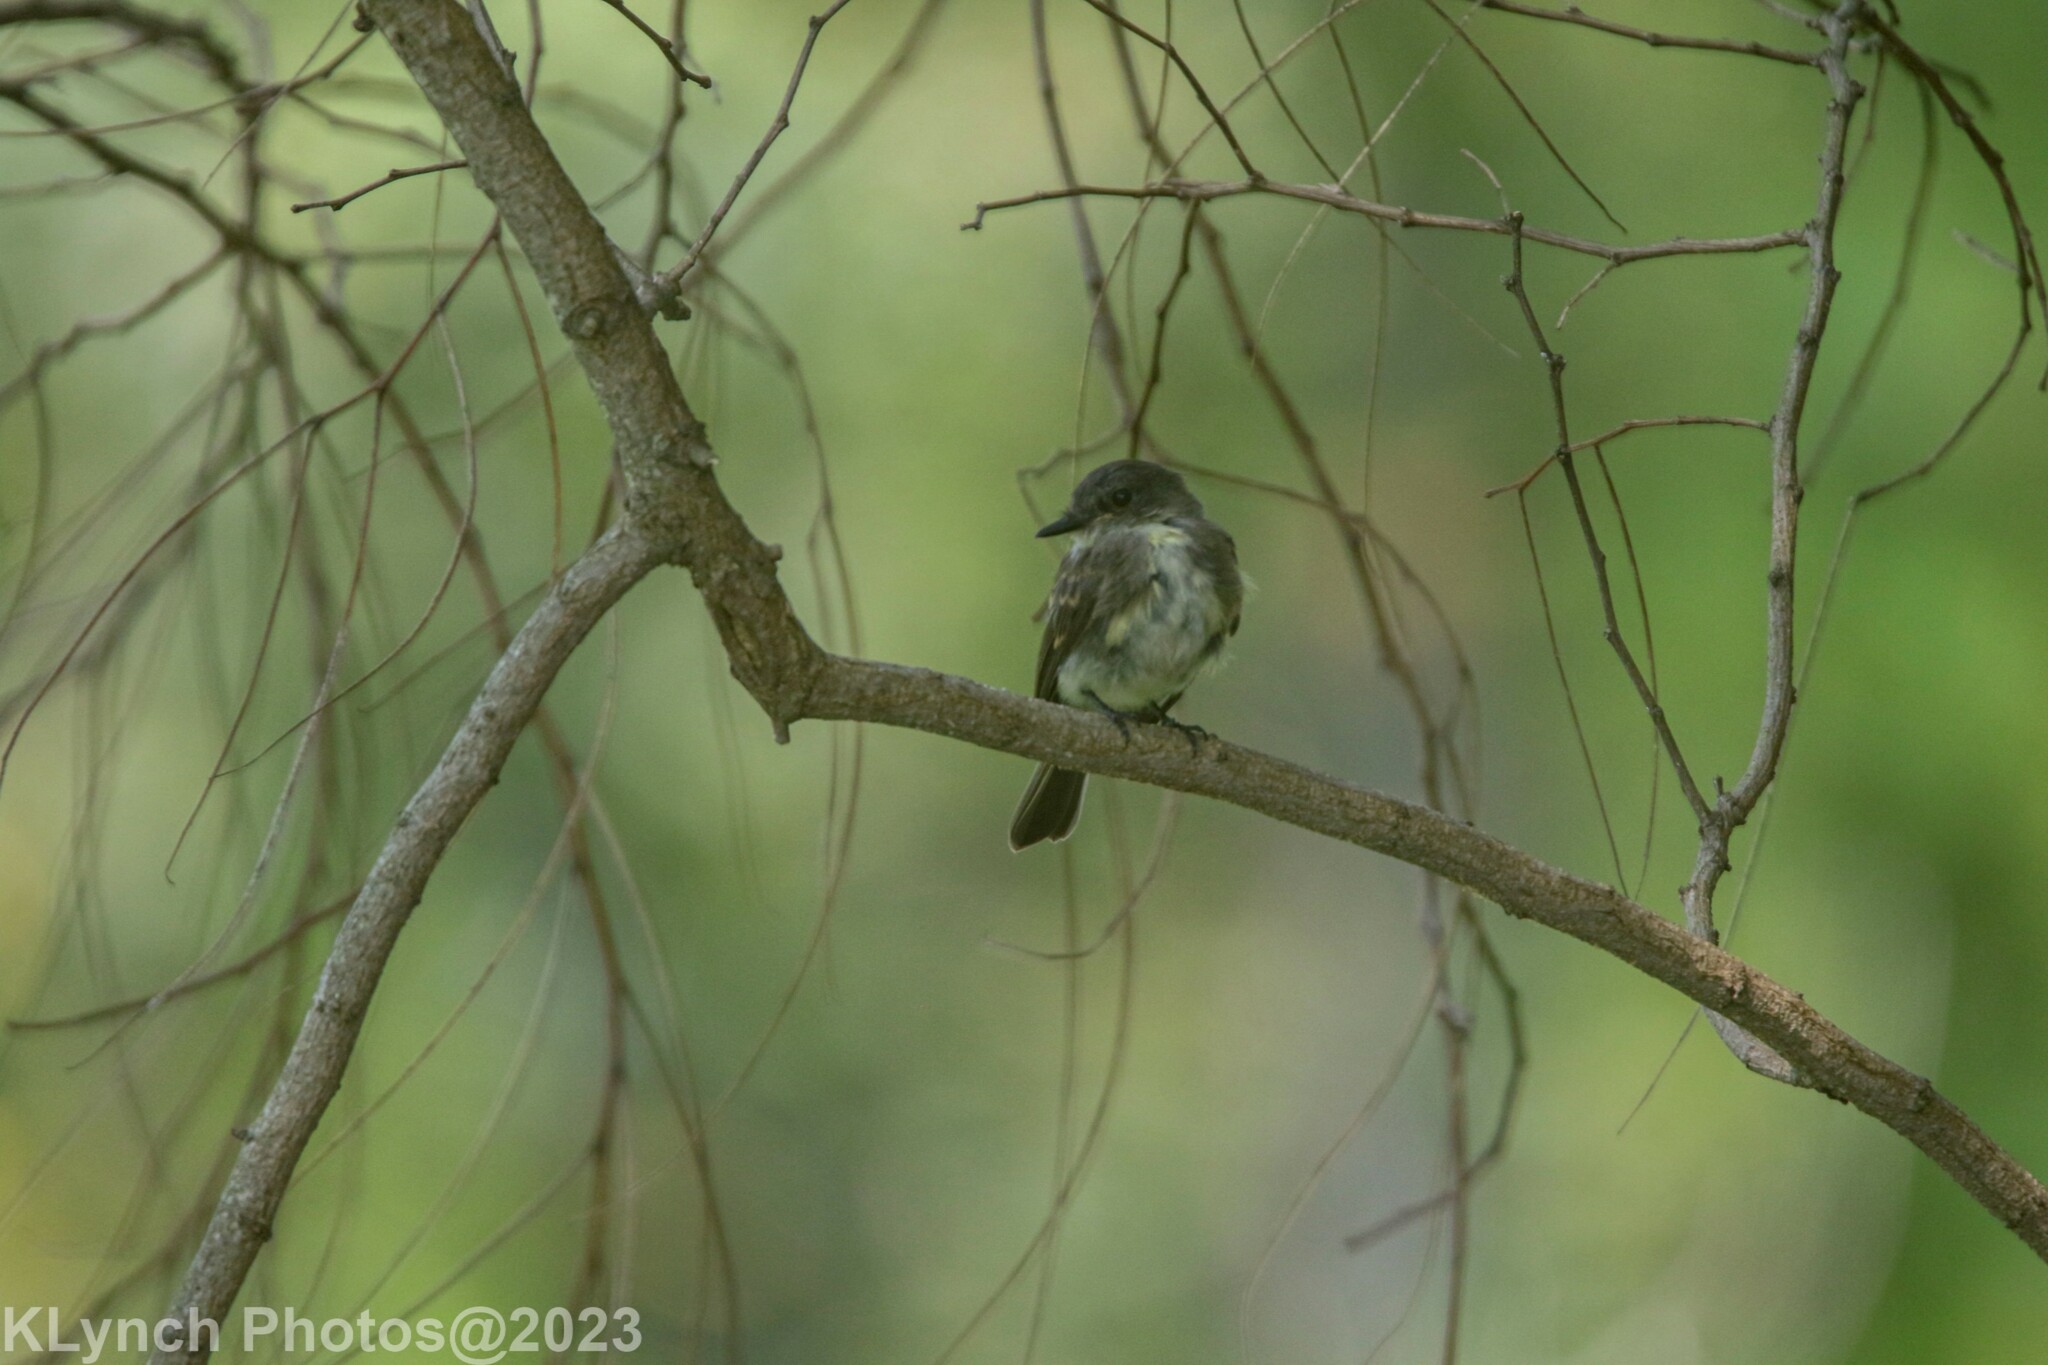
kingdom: Animalia
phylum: Chordata
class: Aves
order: Passeriformes
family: Tyrannidae
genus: Sayornis
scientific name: Sayornis phoebe
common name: Eastern phoebe
